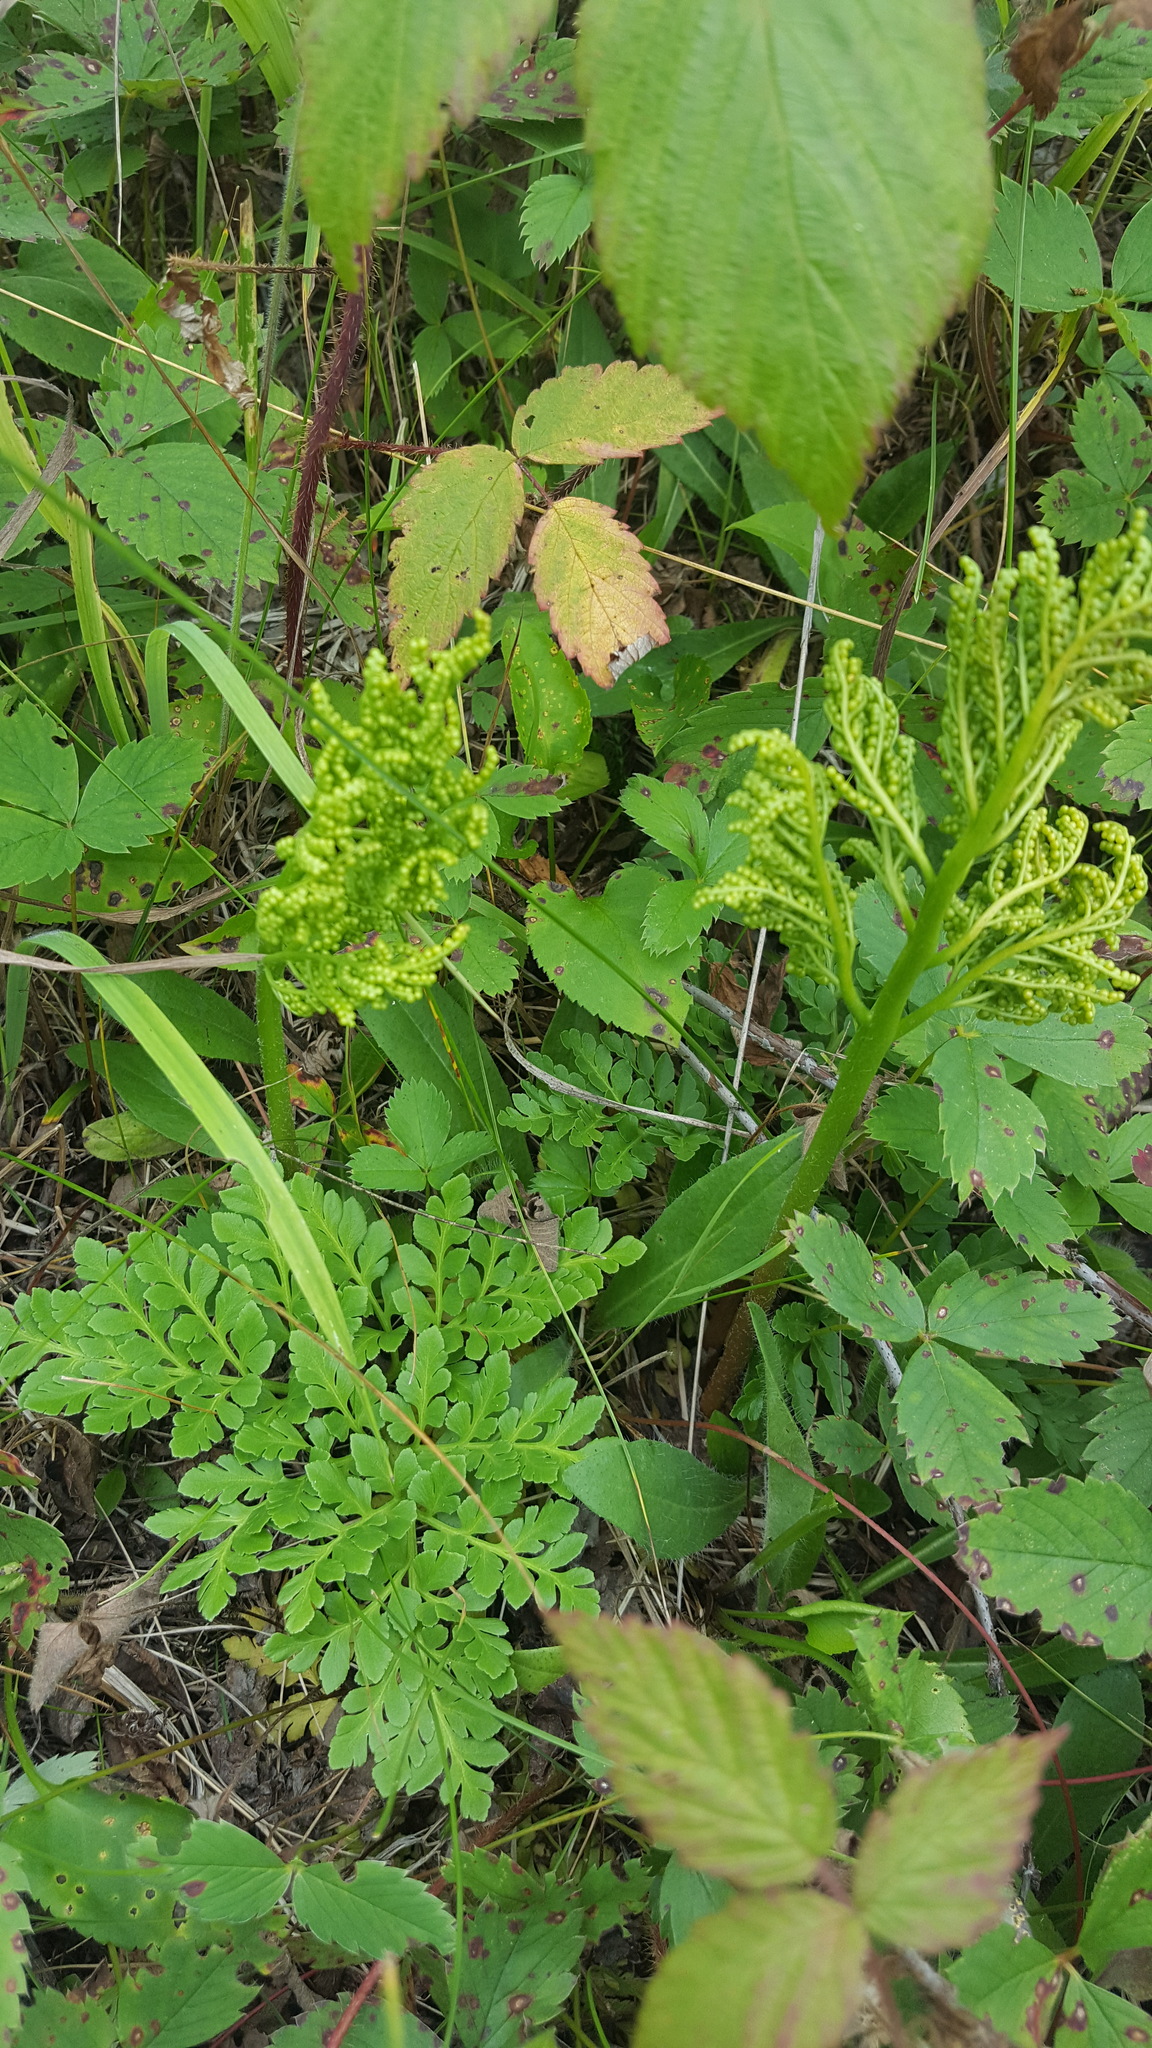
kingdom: Plantae
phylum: Tracheophyta
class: Polypodiopsida
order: Ophioglossales
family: Ophioglossaceae
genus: Sceptridium
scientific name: Sceptridium multifidum
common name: Leathery grape fern
